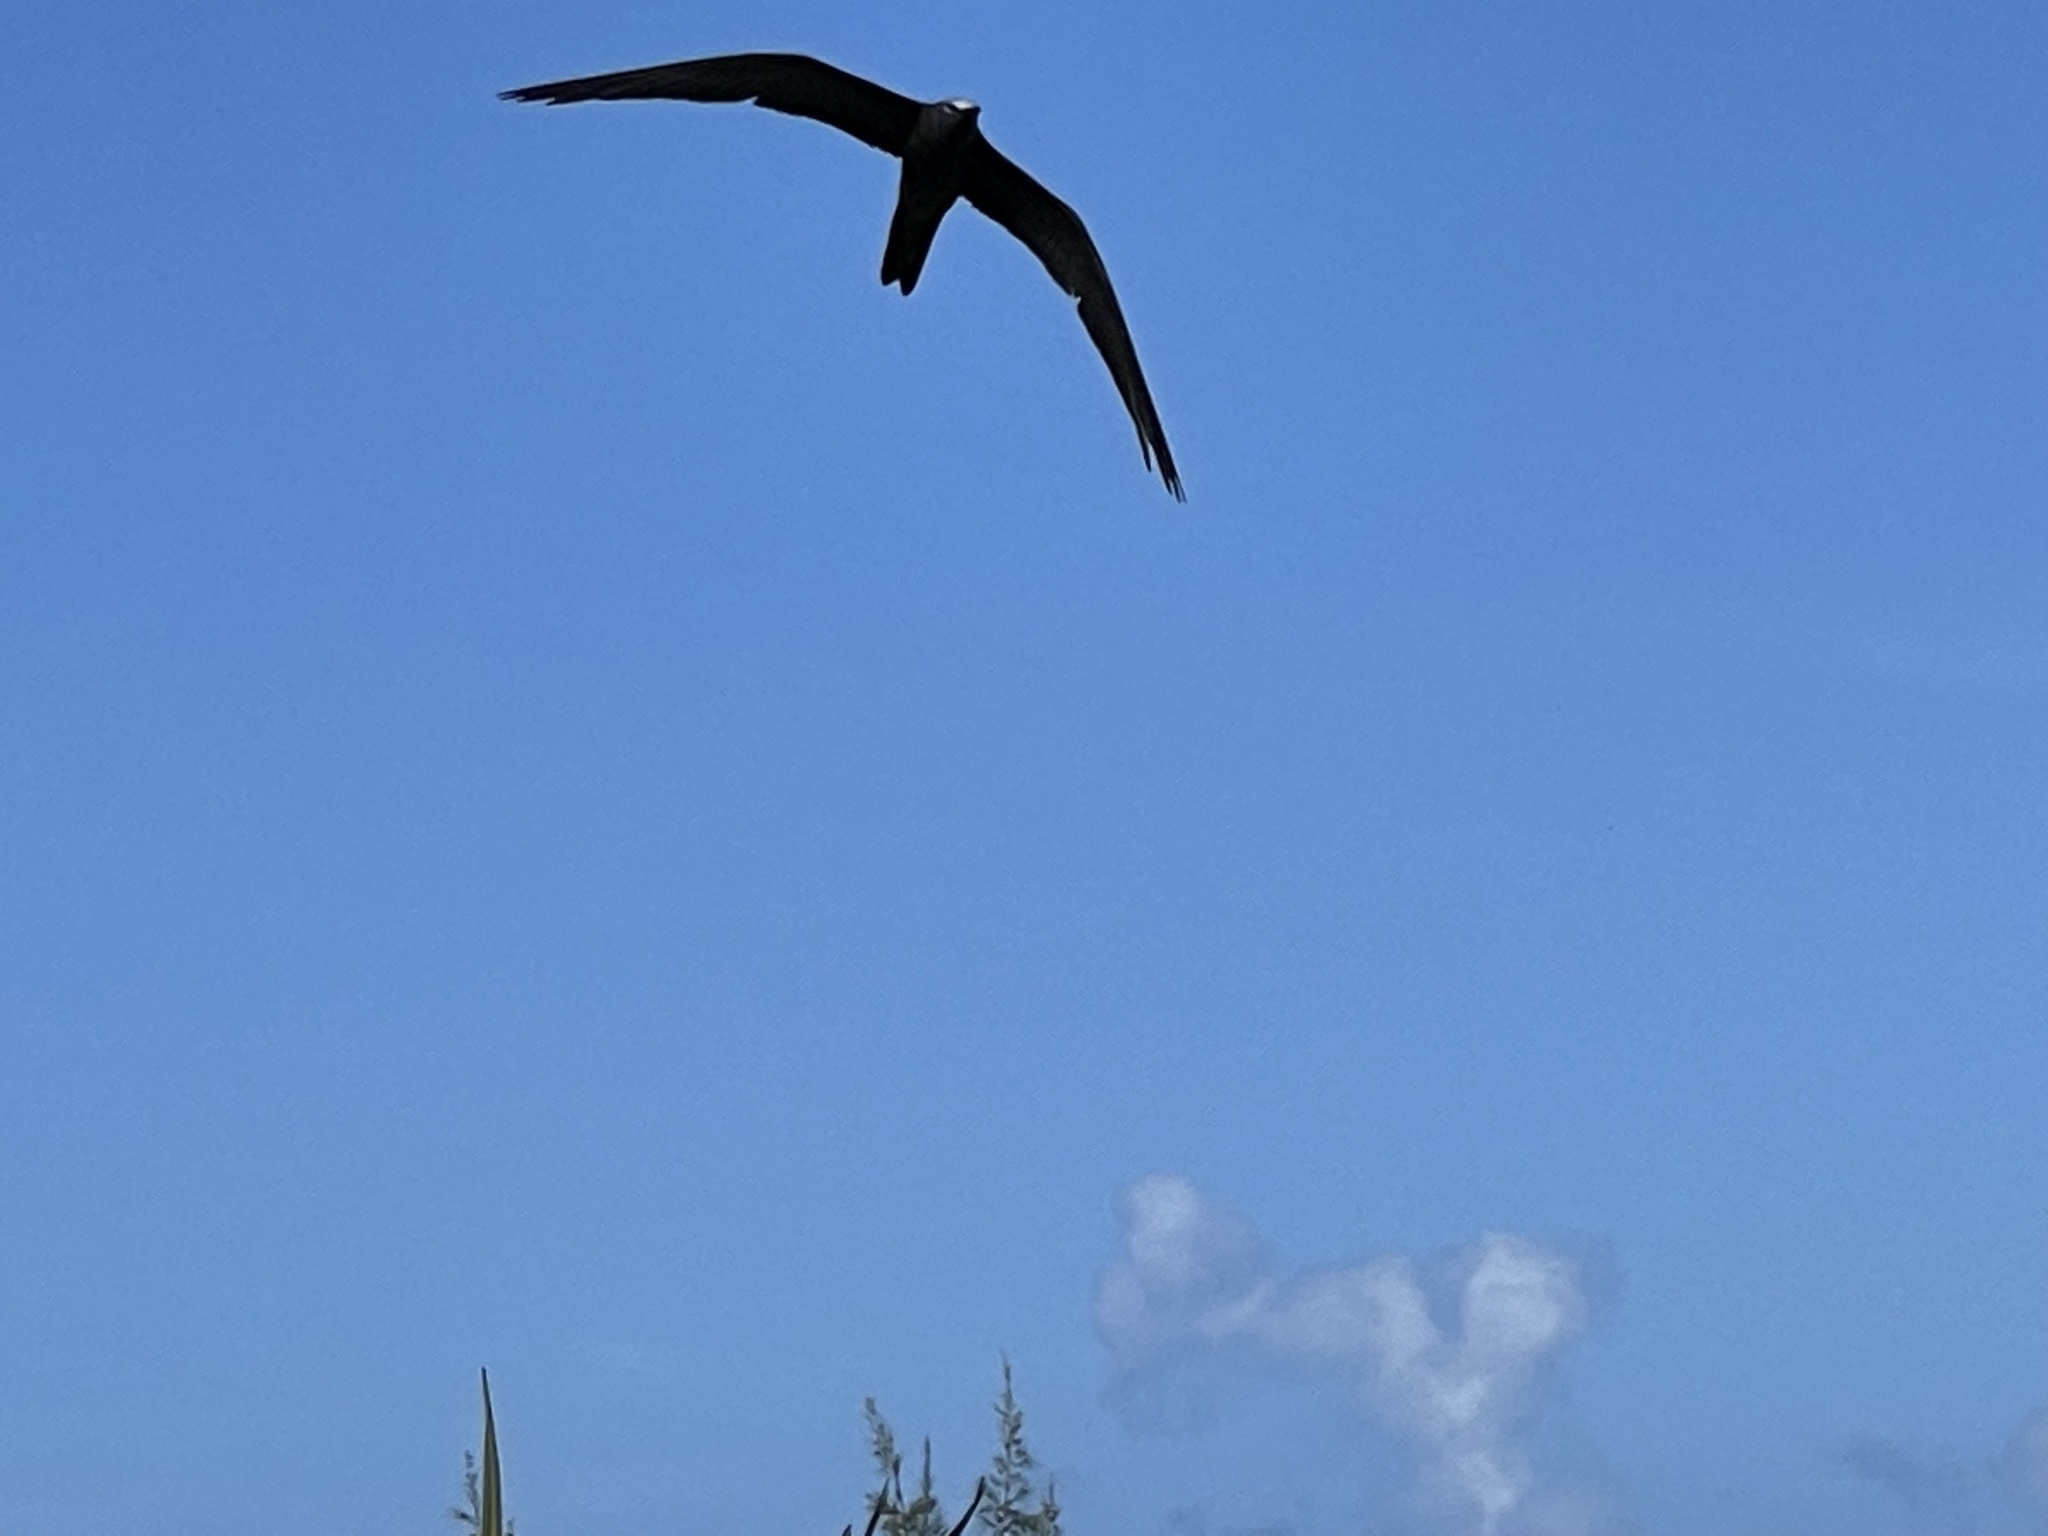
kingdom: Animalia
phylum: Chordata
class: Aves
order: Charadriiformes
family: Laridae
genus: Anous
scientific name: Anous stolidus
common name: Brown noddy
